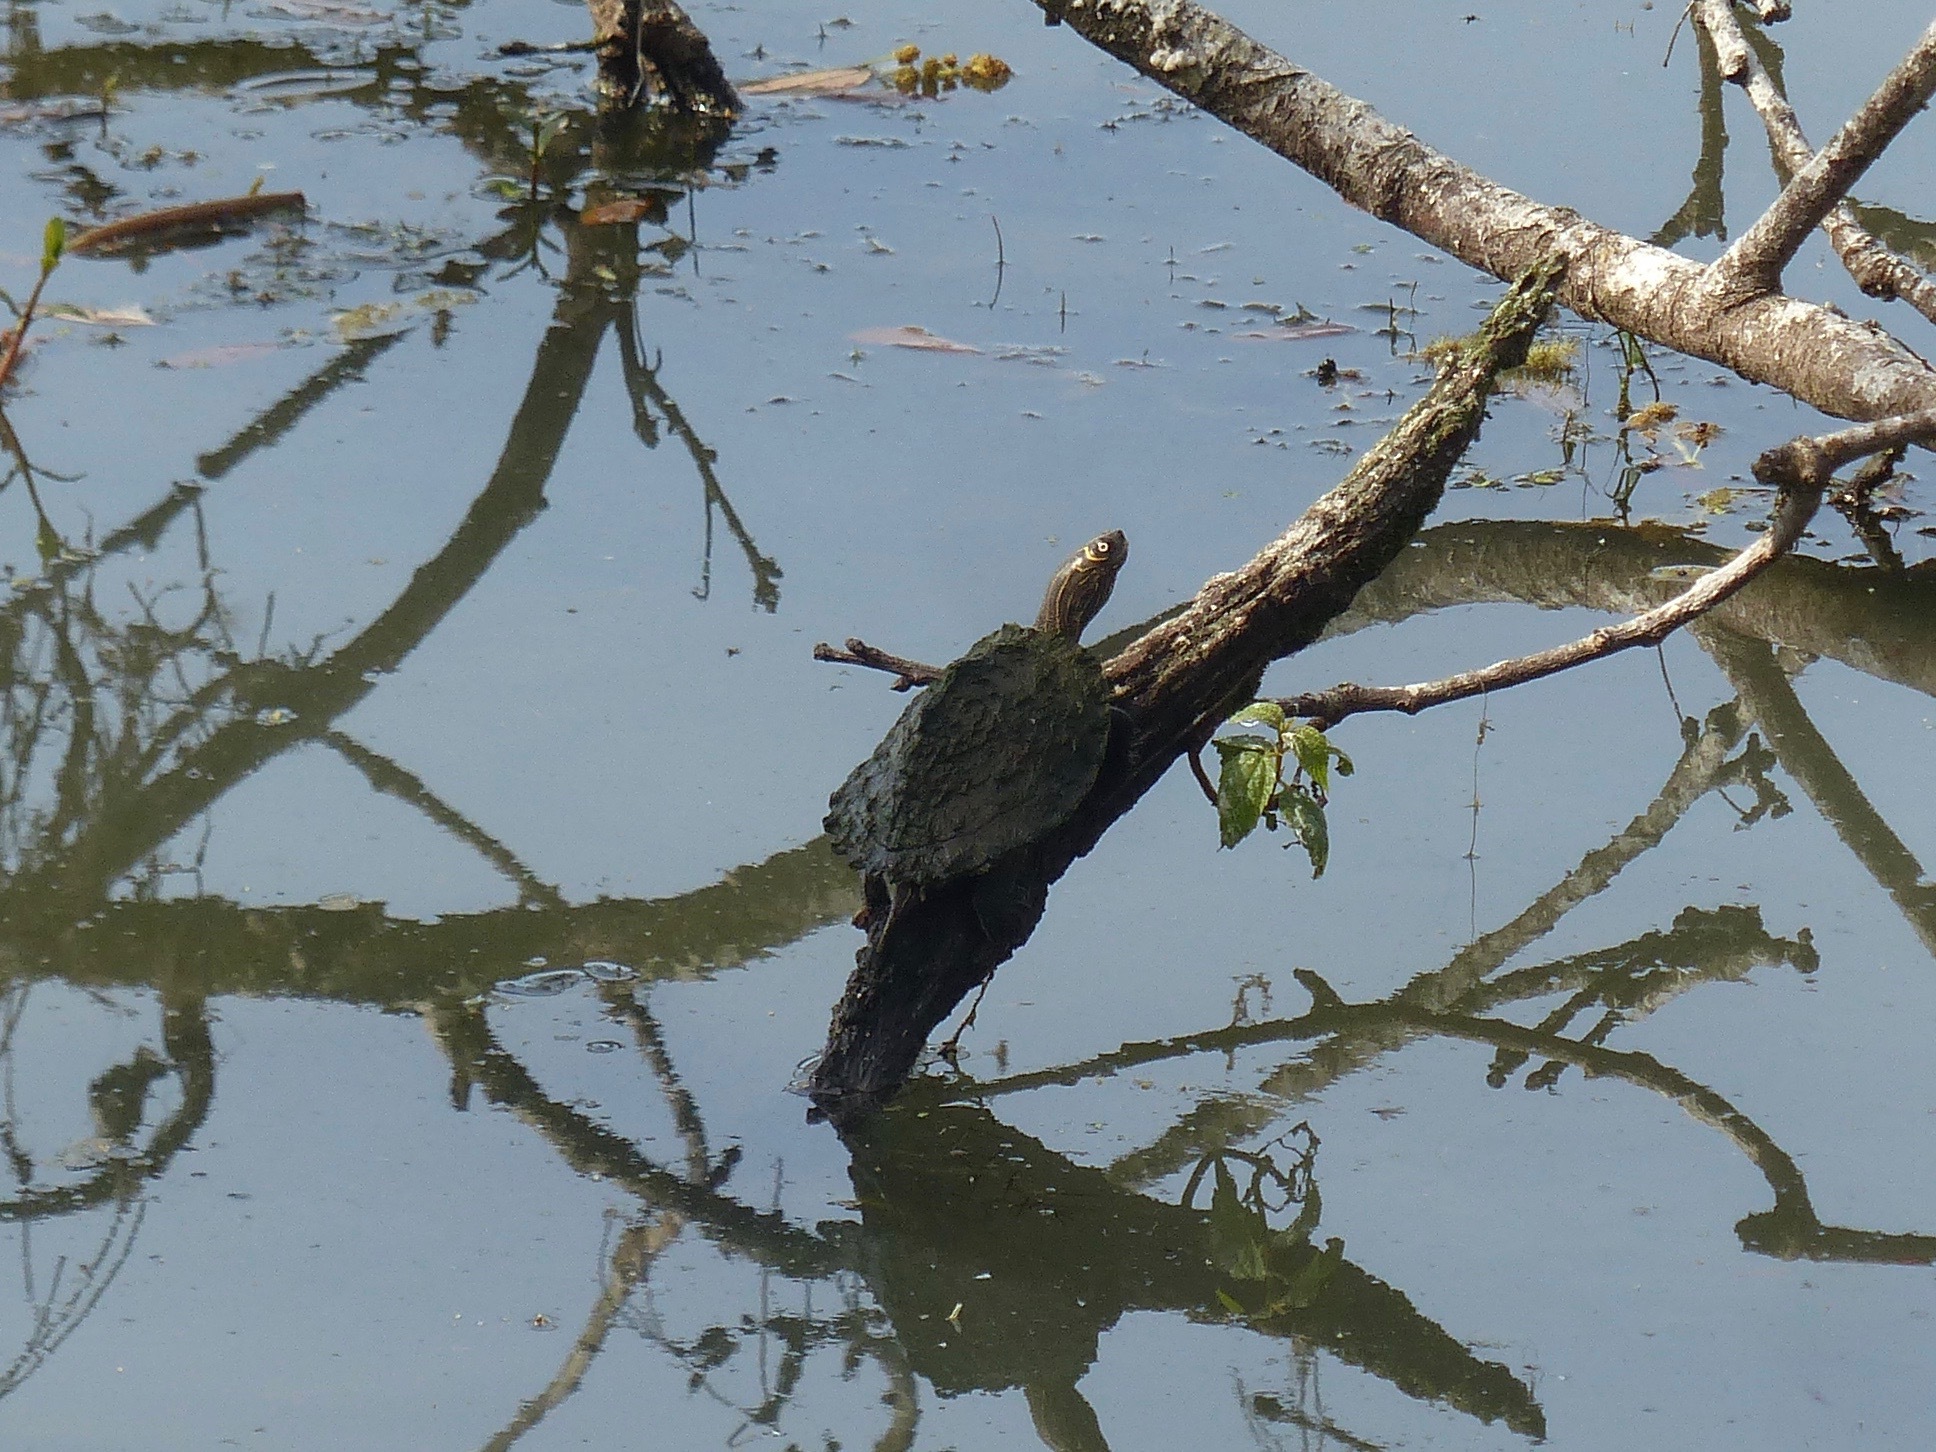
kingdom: Animalia
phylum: Chordata
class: Testudines
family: Emydidae
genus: Graptemys
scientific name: Graptemys pseudogeographica
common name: False map turtle
